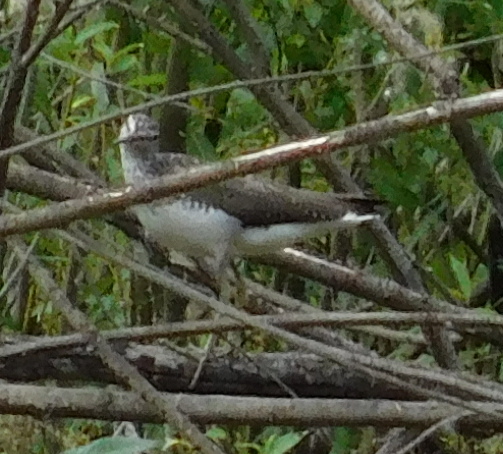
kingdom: Animalia
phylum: Chordata
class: Aves
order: Charadriiformes
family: Scolopacidae
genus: Tringa
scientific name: Tringa ochropus
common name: Green sandpiper
